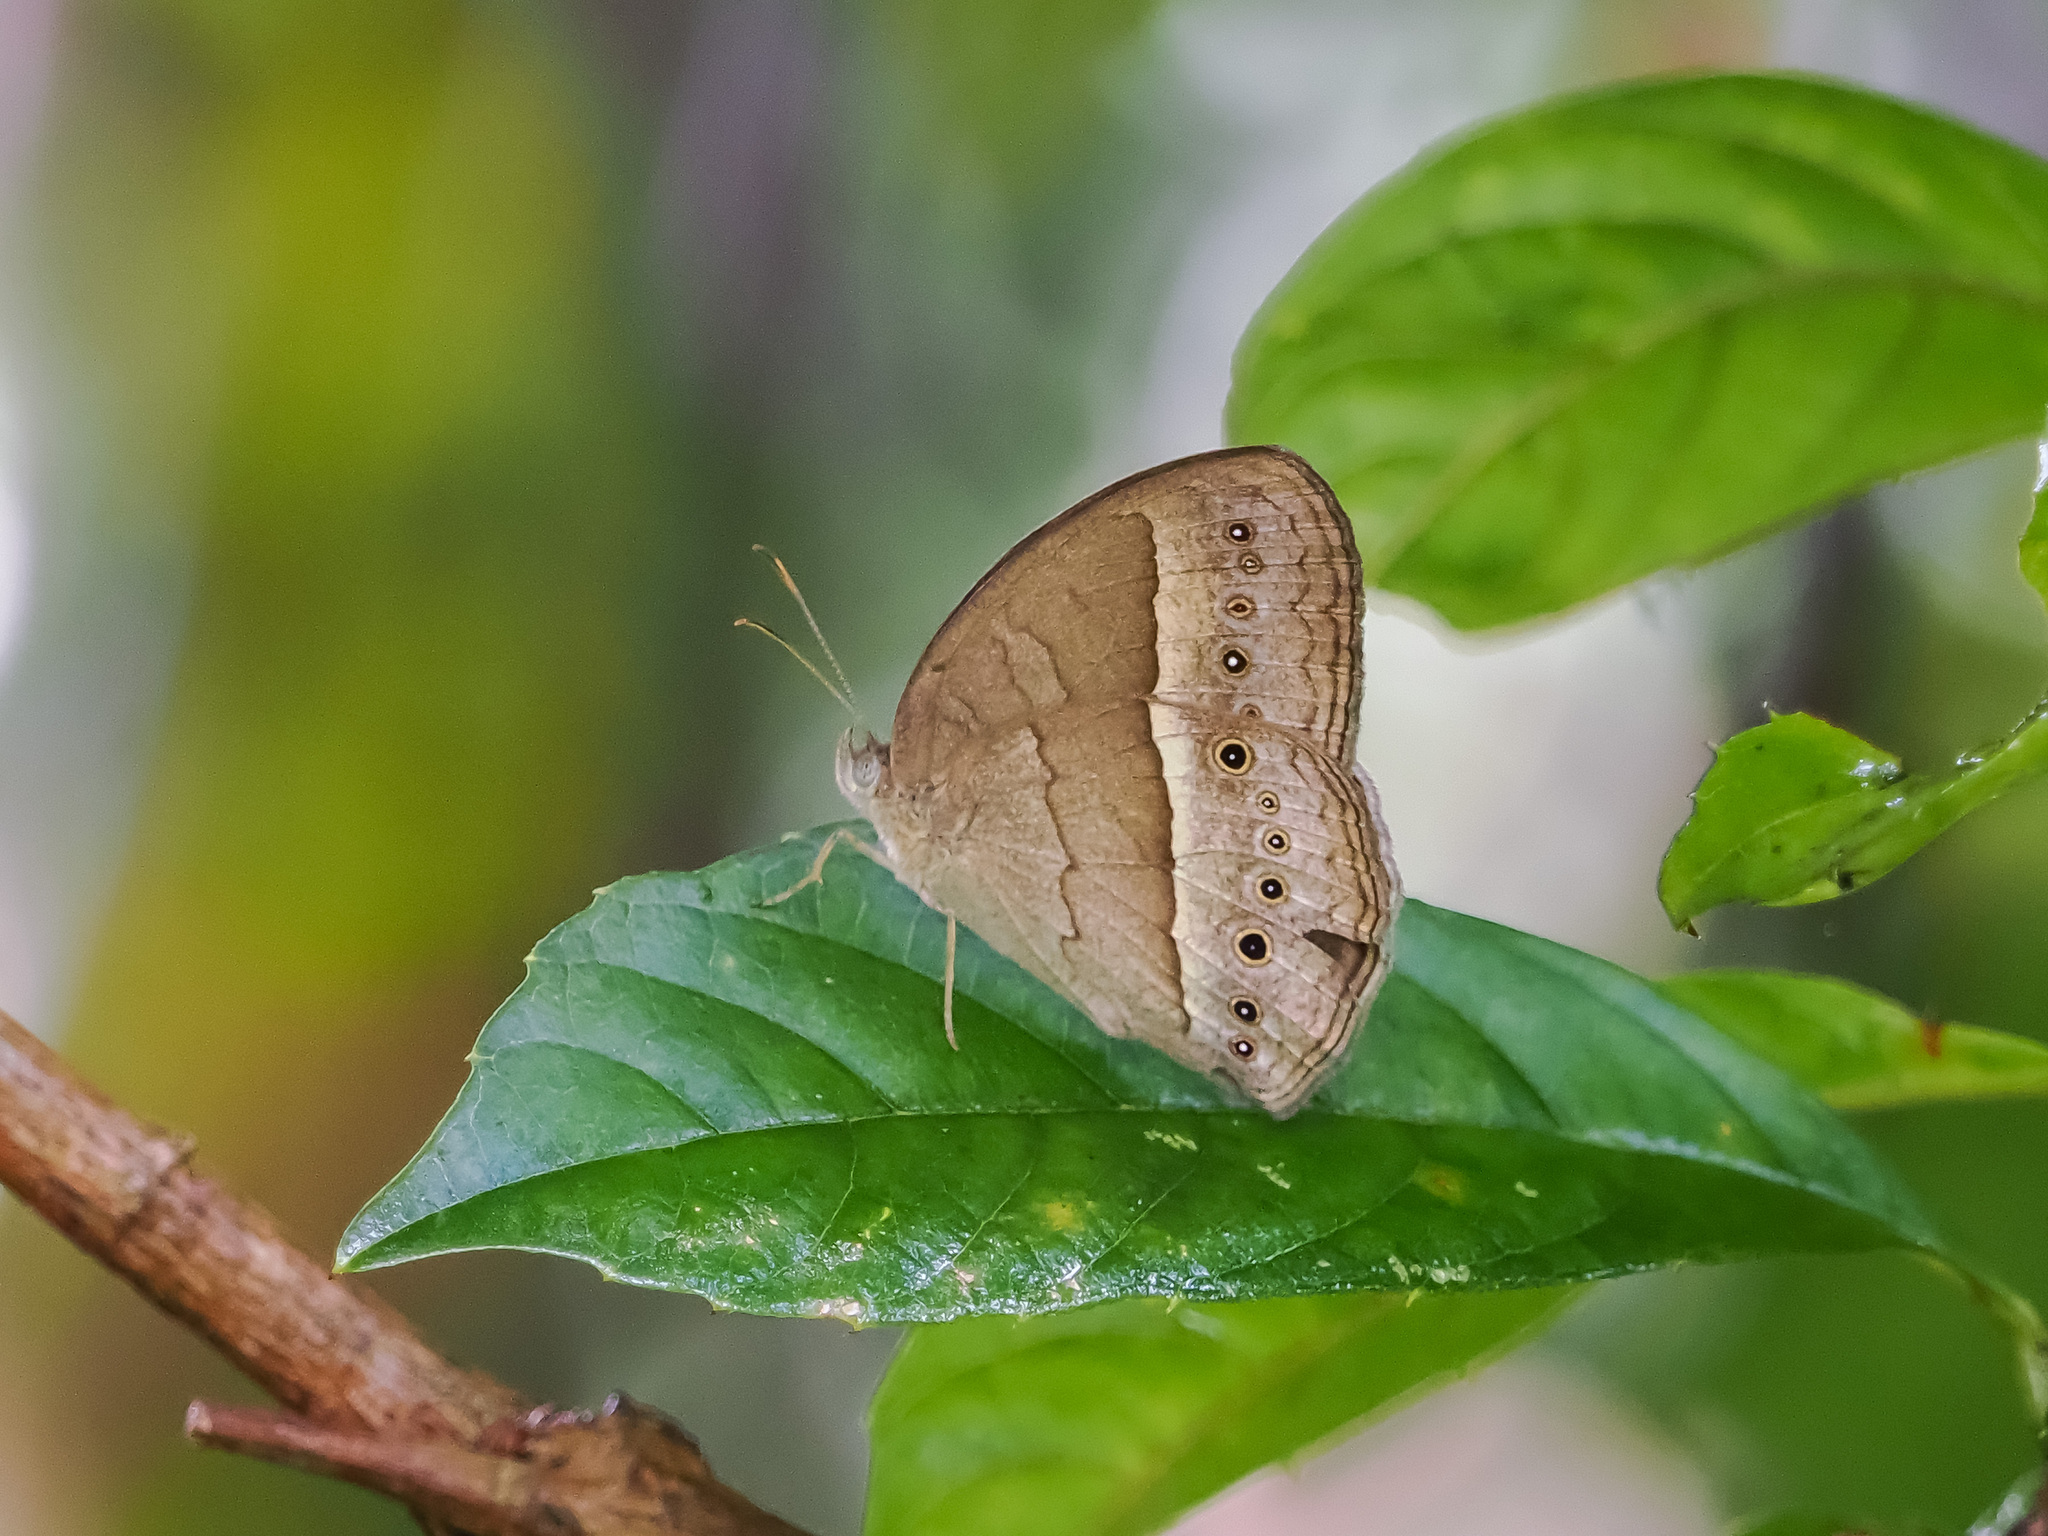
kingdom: Animalia
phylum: Arthropoda
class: Insecta
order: Lepidoptera
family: Nymphalidae
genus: Mycalesis
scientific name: Mycalesis perseoides
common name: Burmese bushbrown
